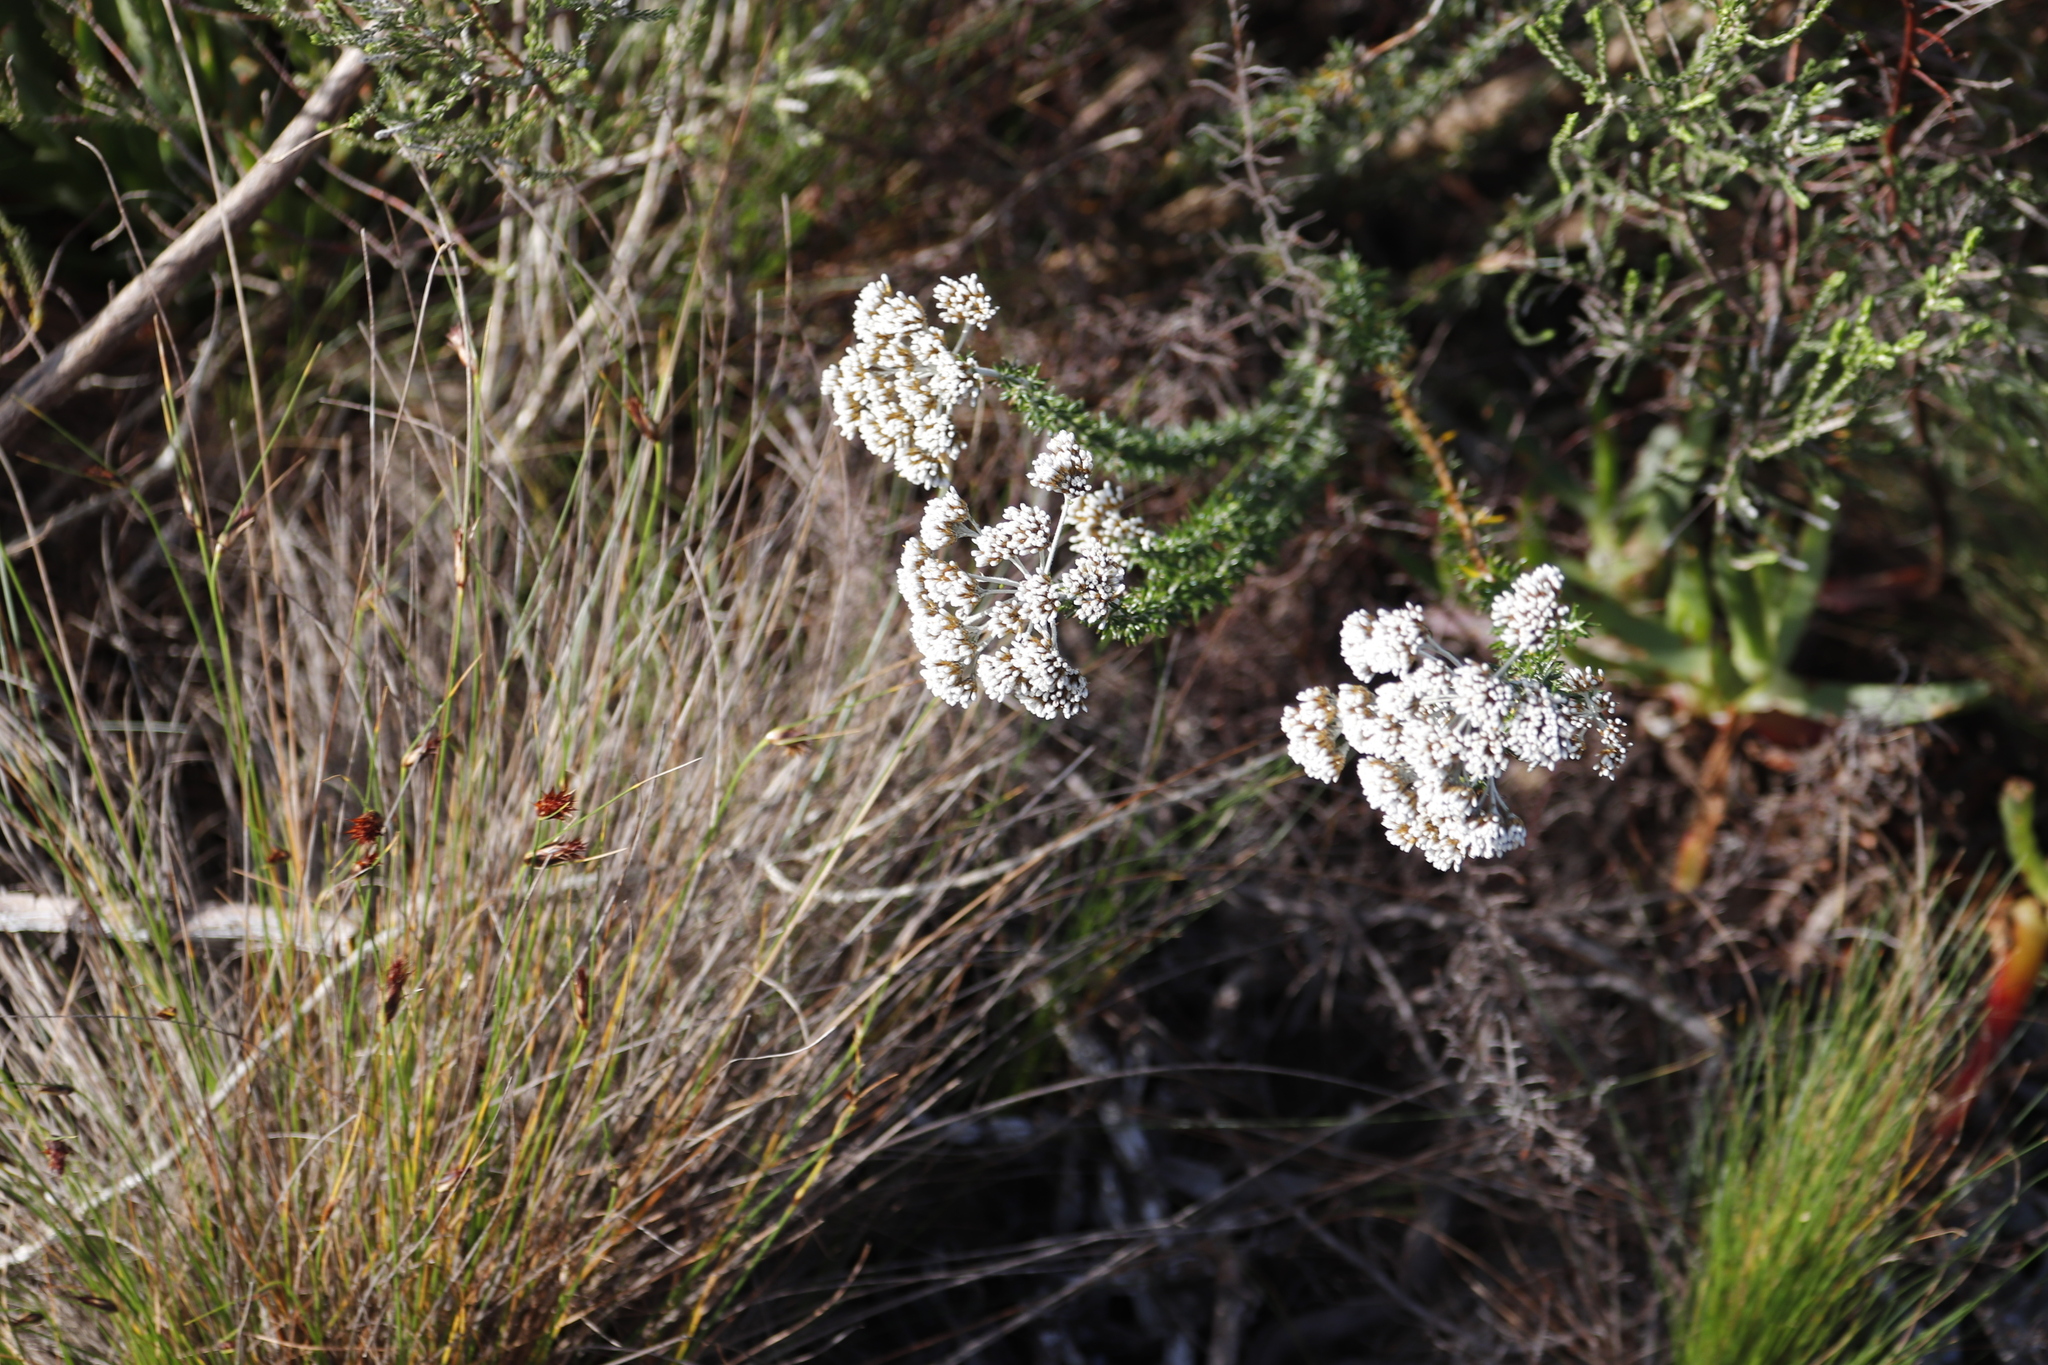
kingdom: Plantae
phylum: Tracheophyta
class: Magnoliopsida
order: Asterales
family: Asteraceae
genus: Metalasia
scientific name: Metalasia densa
